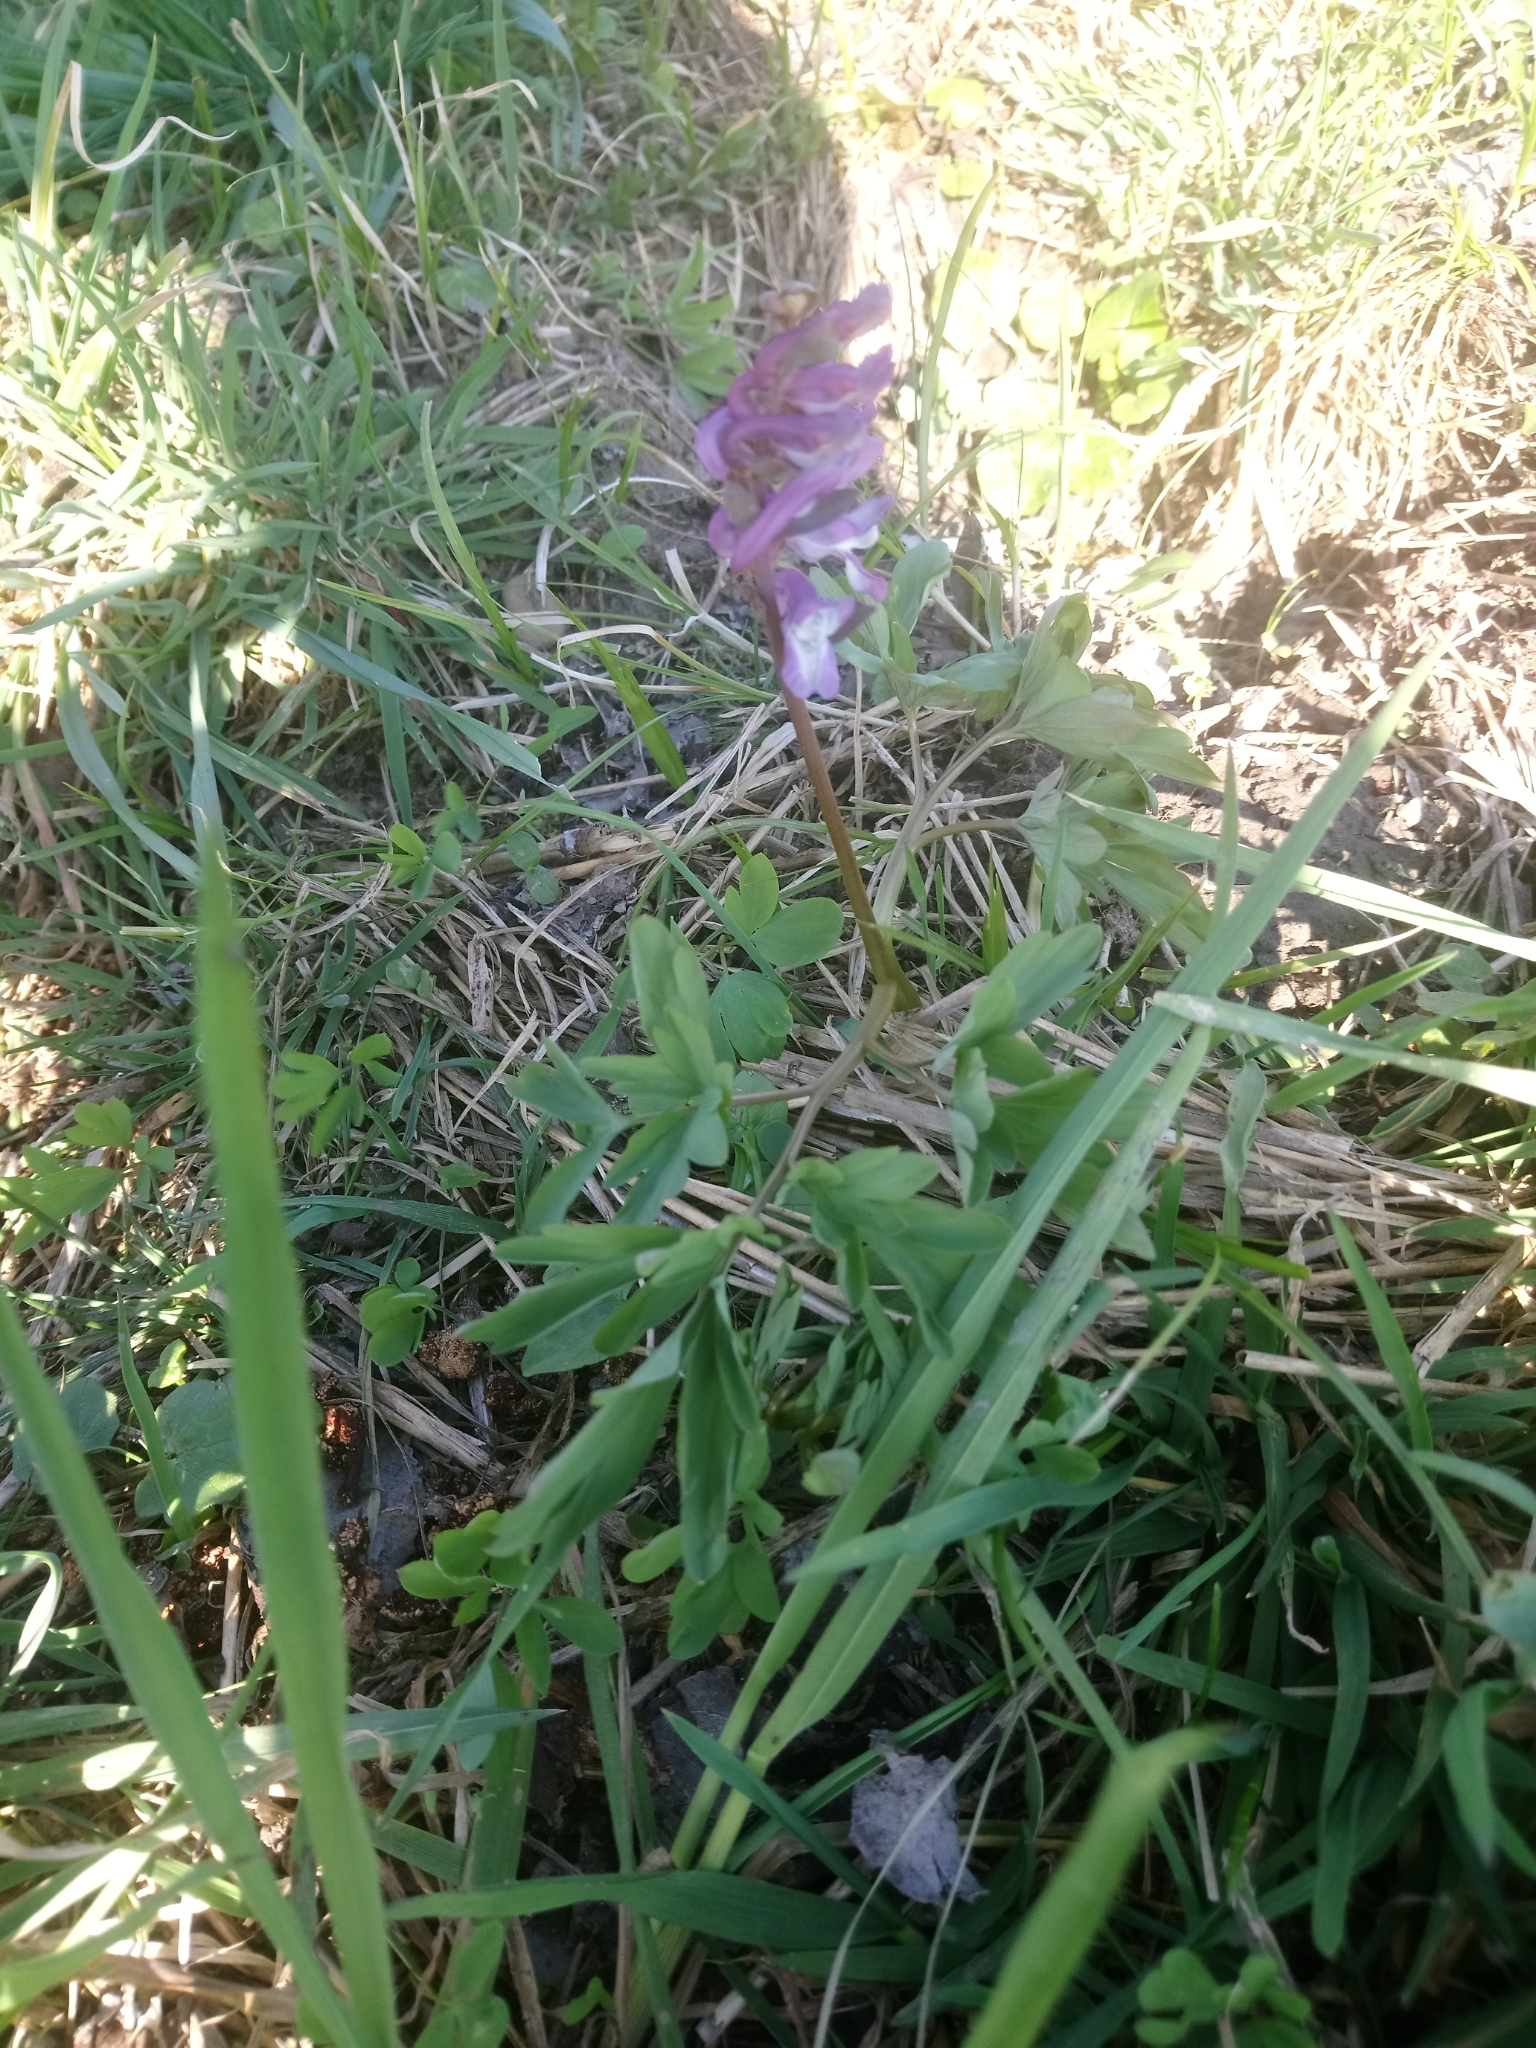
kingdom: Plantae
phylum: Tracheophyta
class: Magnoliopsida
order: Ranunculales
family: Papaveraceae
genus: Corydalis
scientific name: Corydalis cava
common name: Hollowroot
